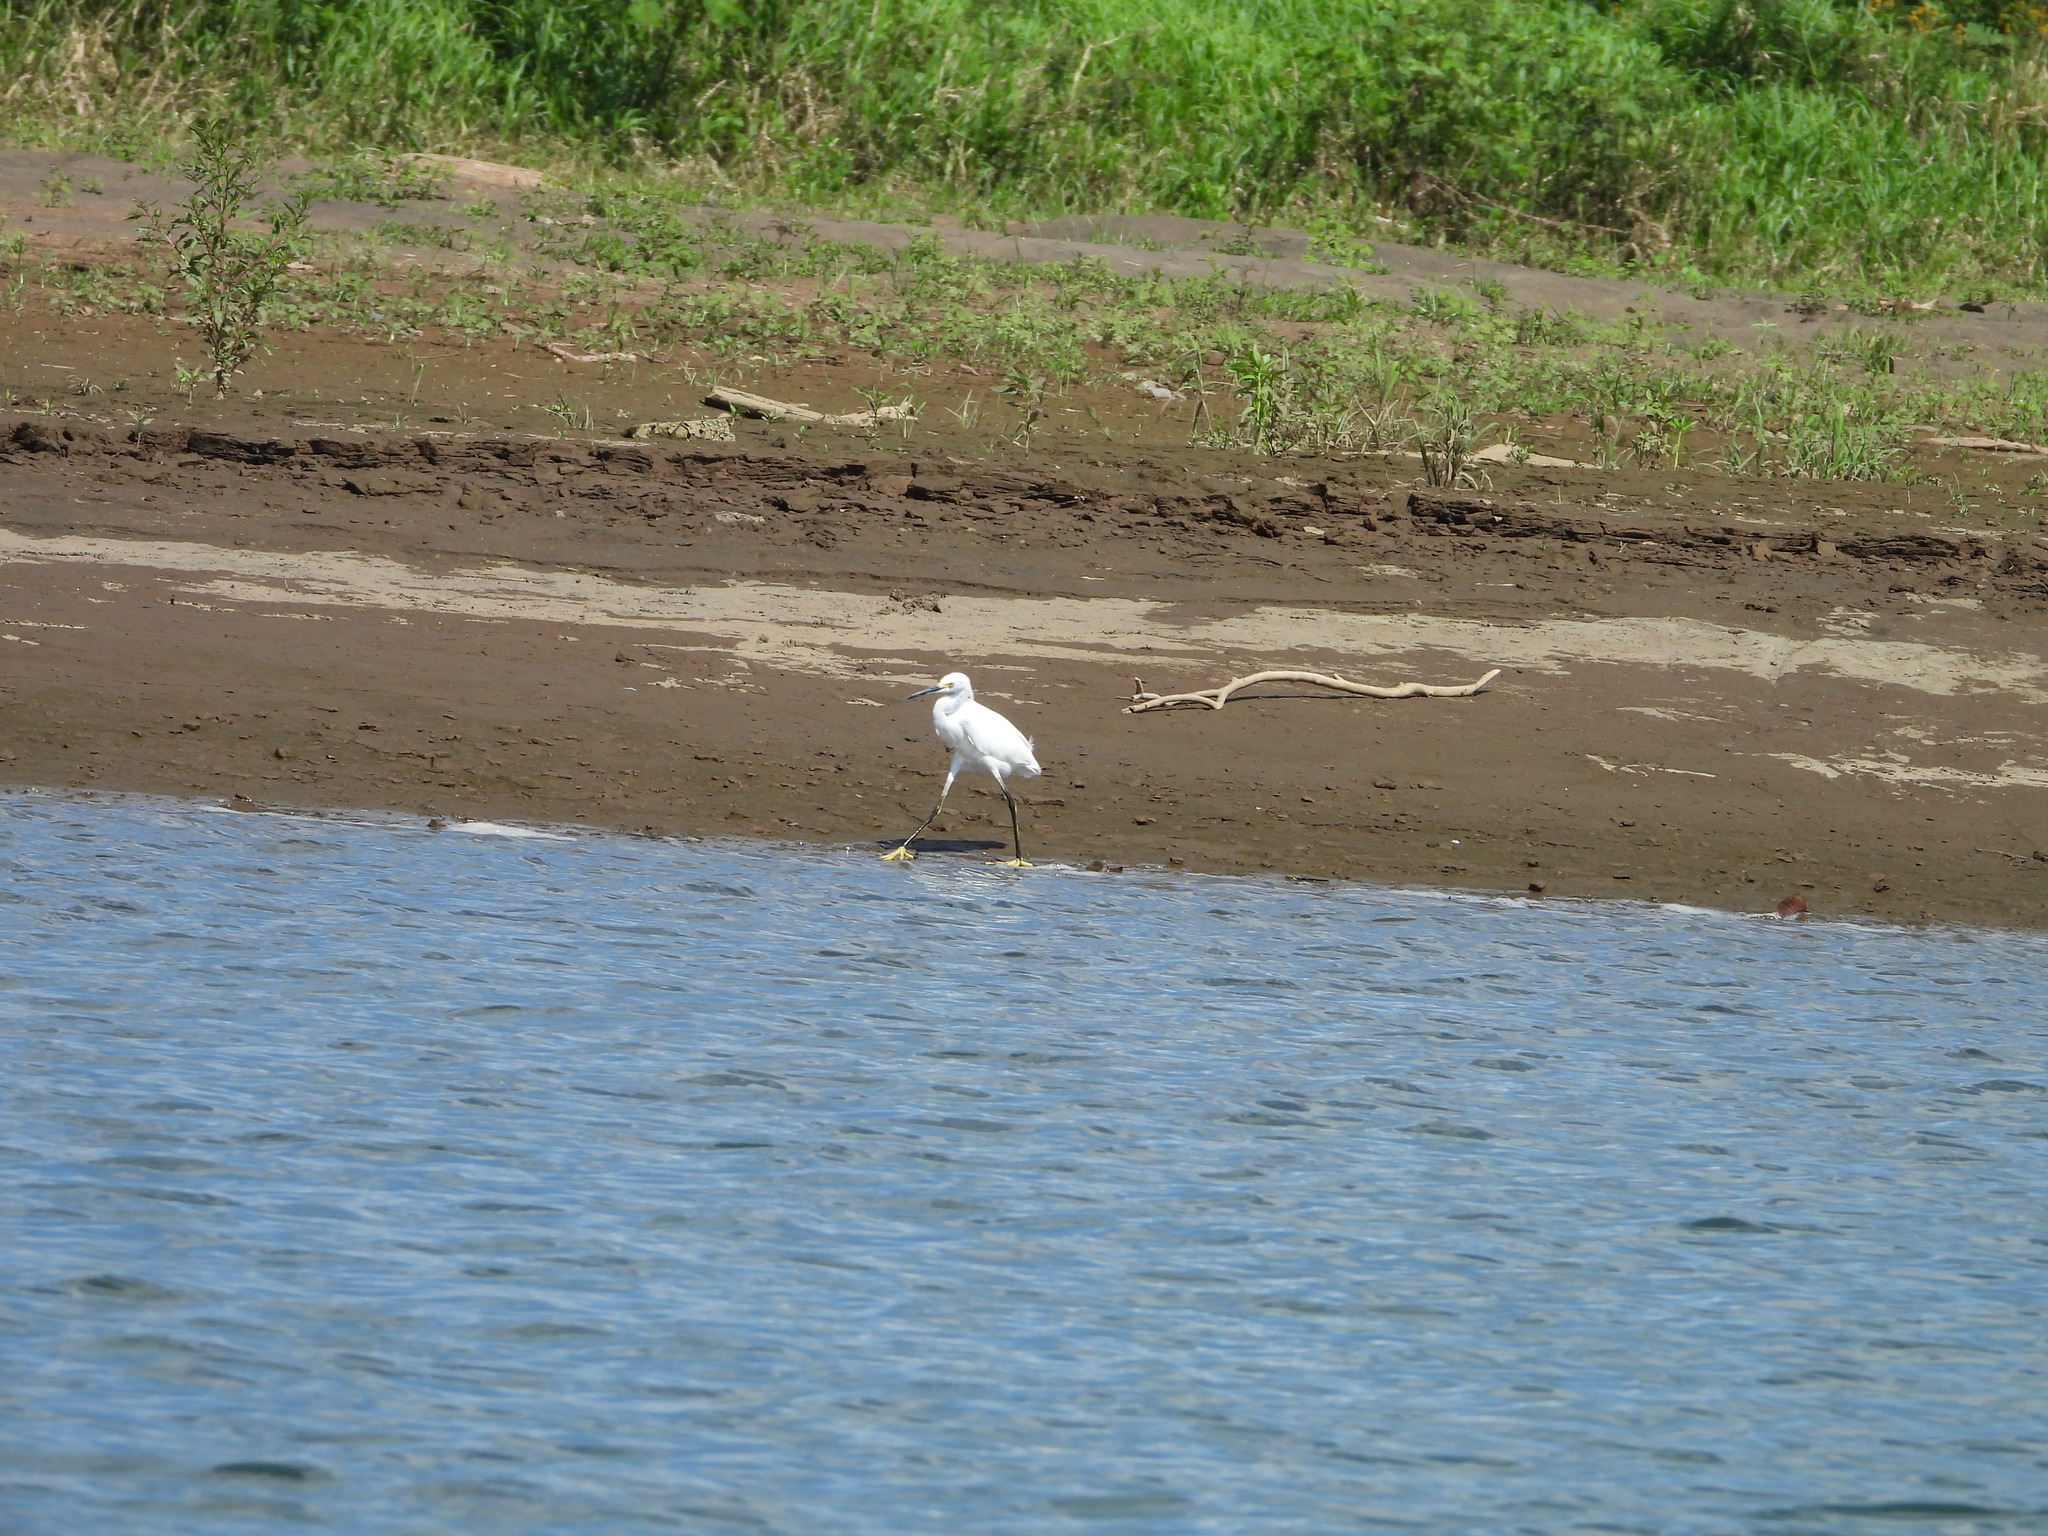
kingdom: Animalia
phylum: Chordata
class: Aves
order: Pelecaniformes
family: Ardeidae
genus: Egretta
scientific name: Egretta thula
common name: Snowy egret
